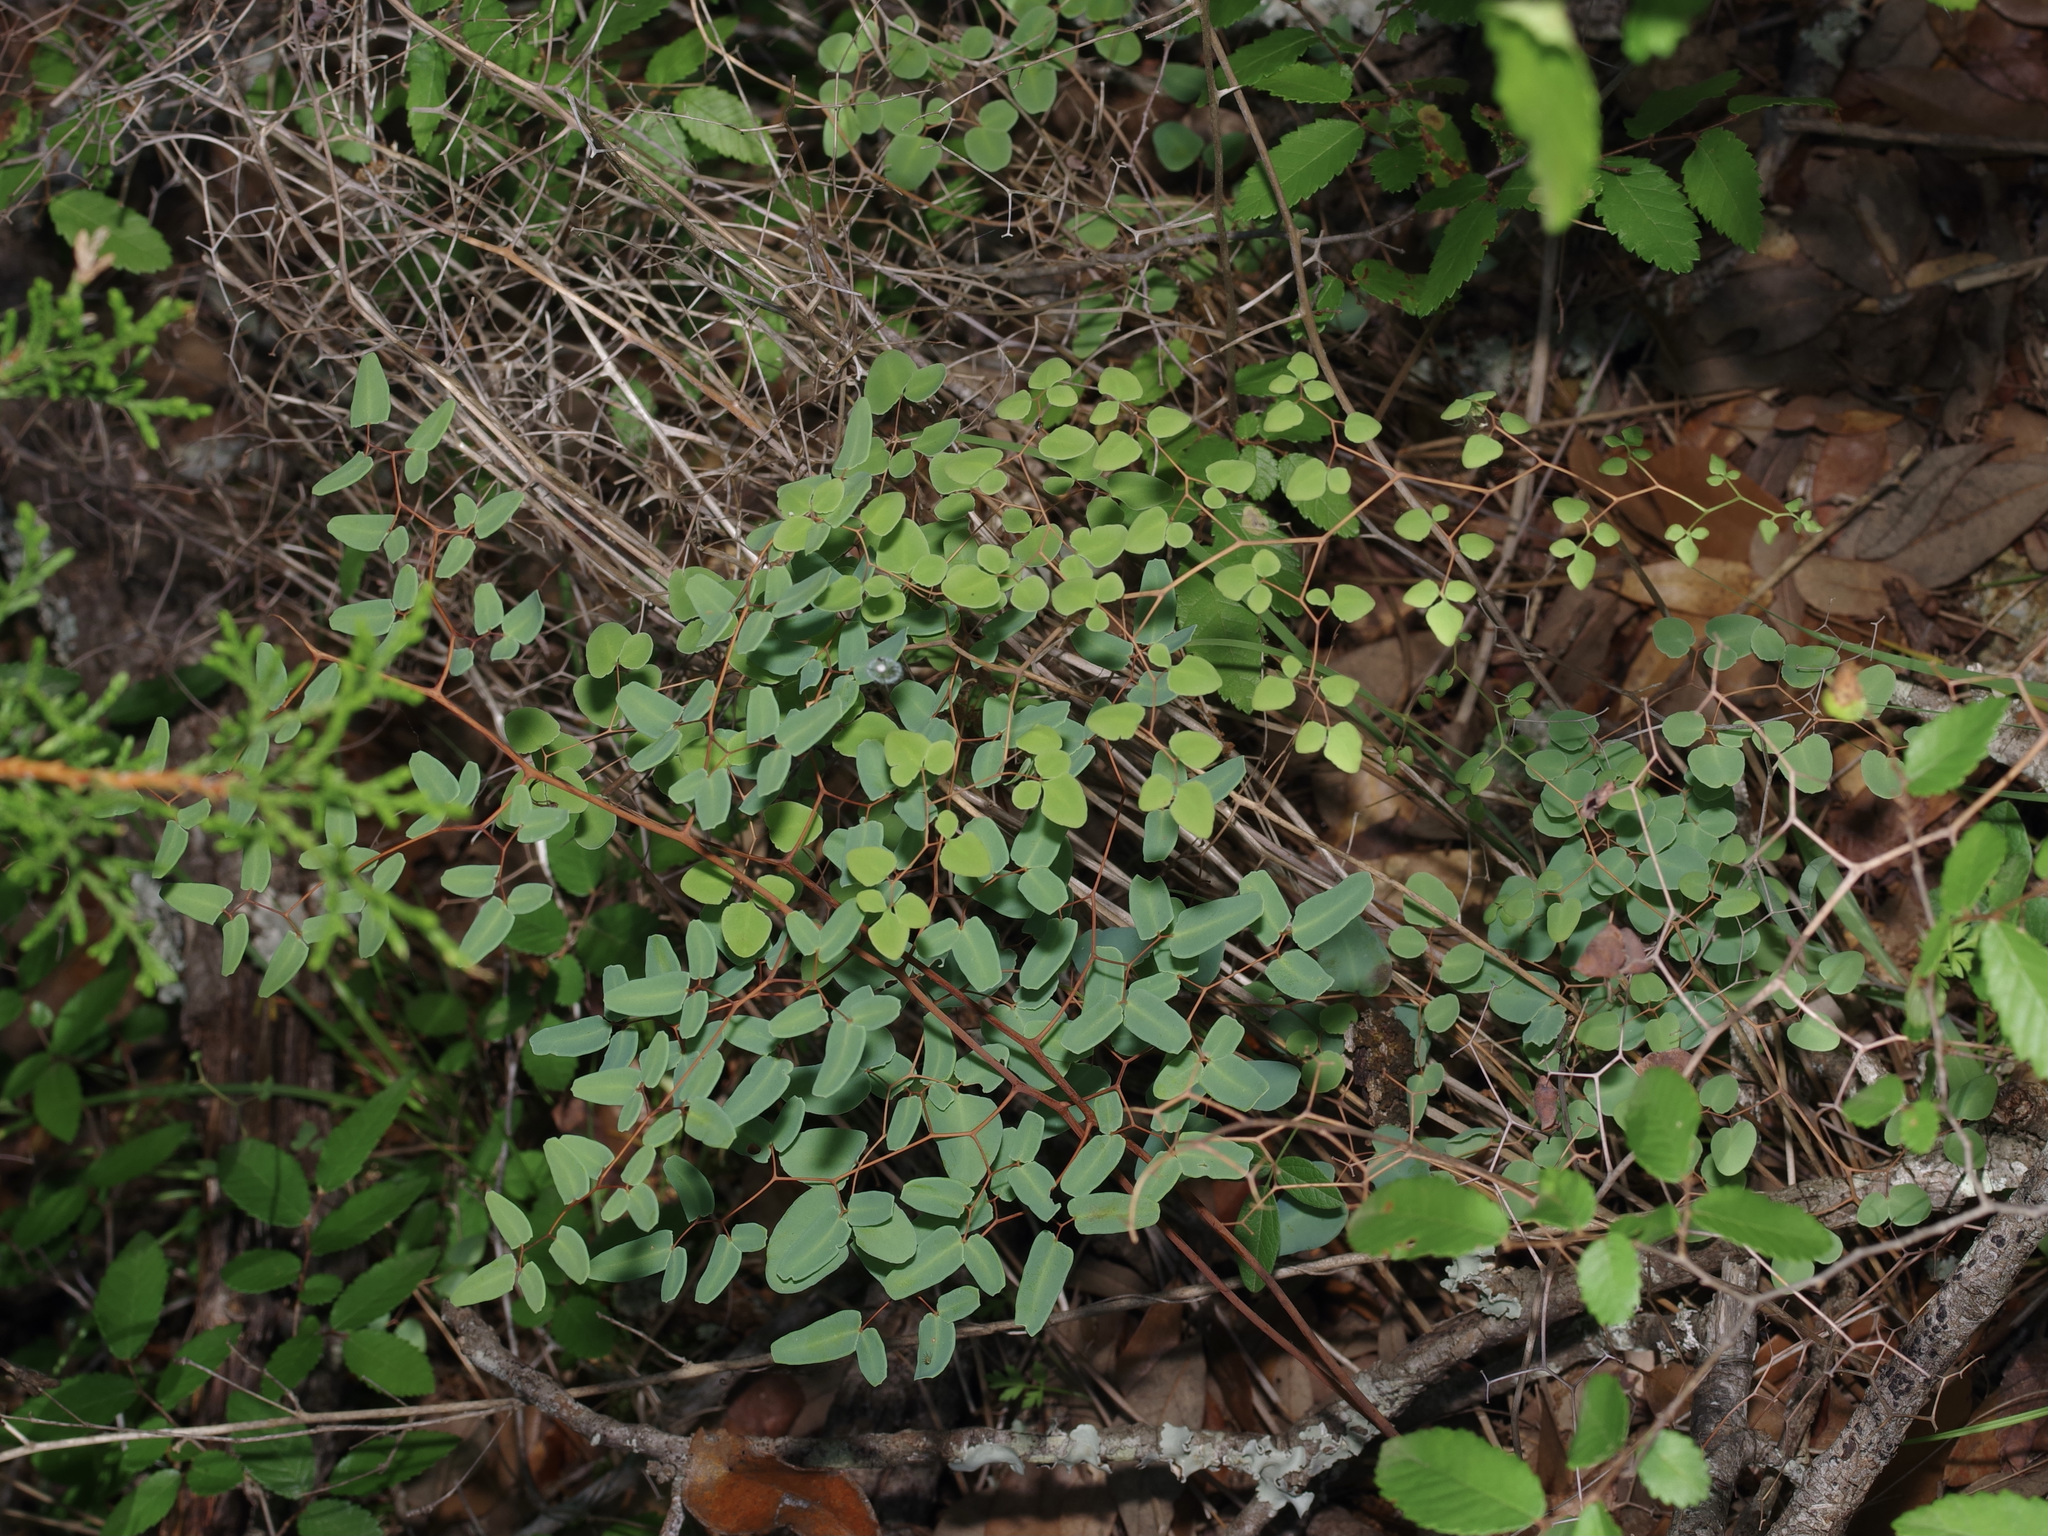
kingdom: Plantae
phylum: Tracheophyta
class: Polypodiopsida
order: Polypodiales
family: Pteridaceae
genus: Pellaea
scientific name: Pellaea ovata
